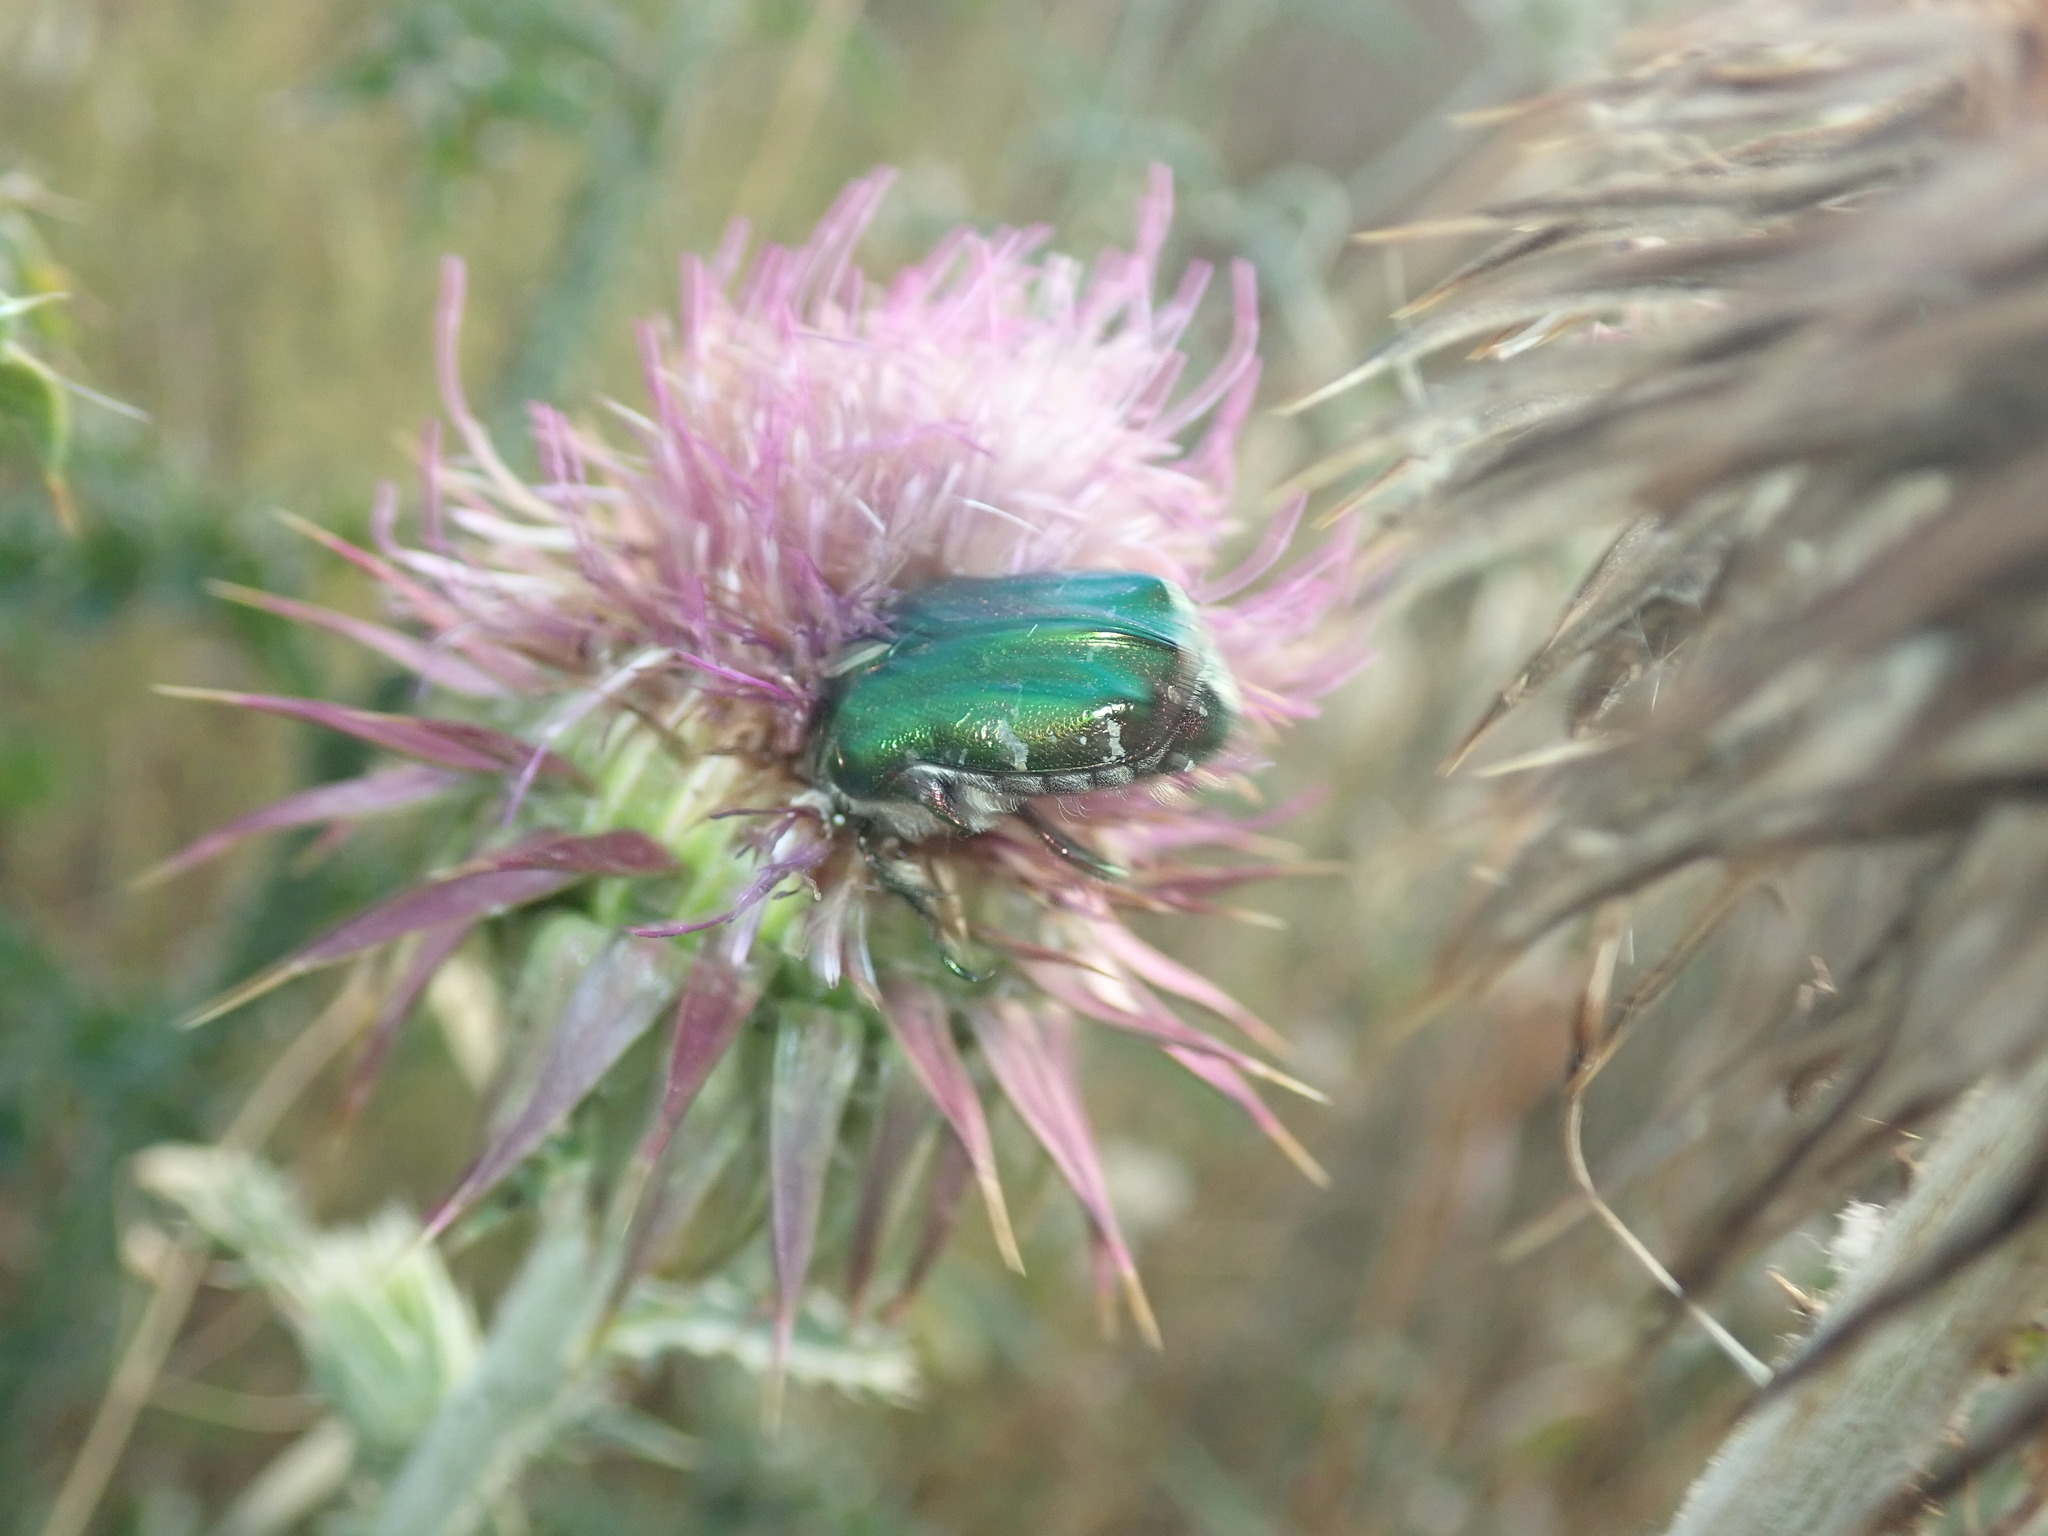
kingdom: Animalia
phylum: Arthropoda
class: Insecta
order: Coleoptera
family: Scarabaeidae
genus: Cetonia
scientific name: Cetonia aurata
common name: Rose chafer
